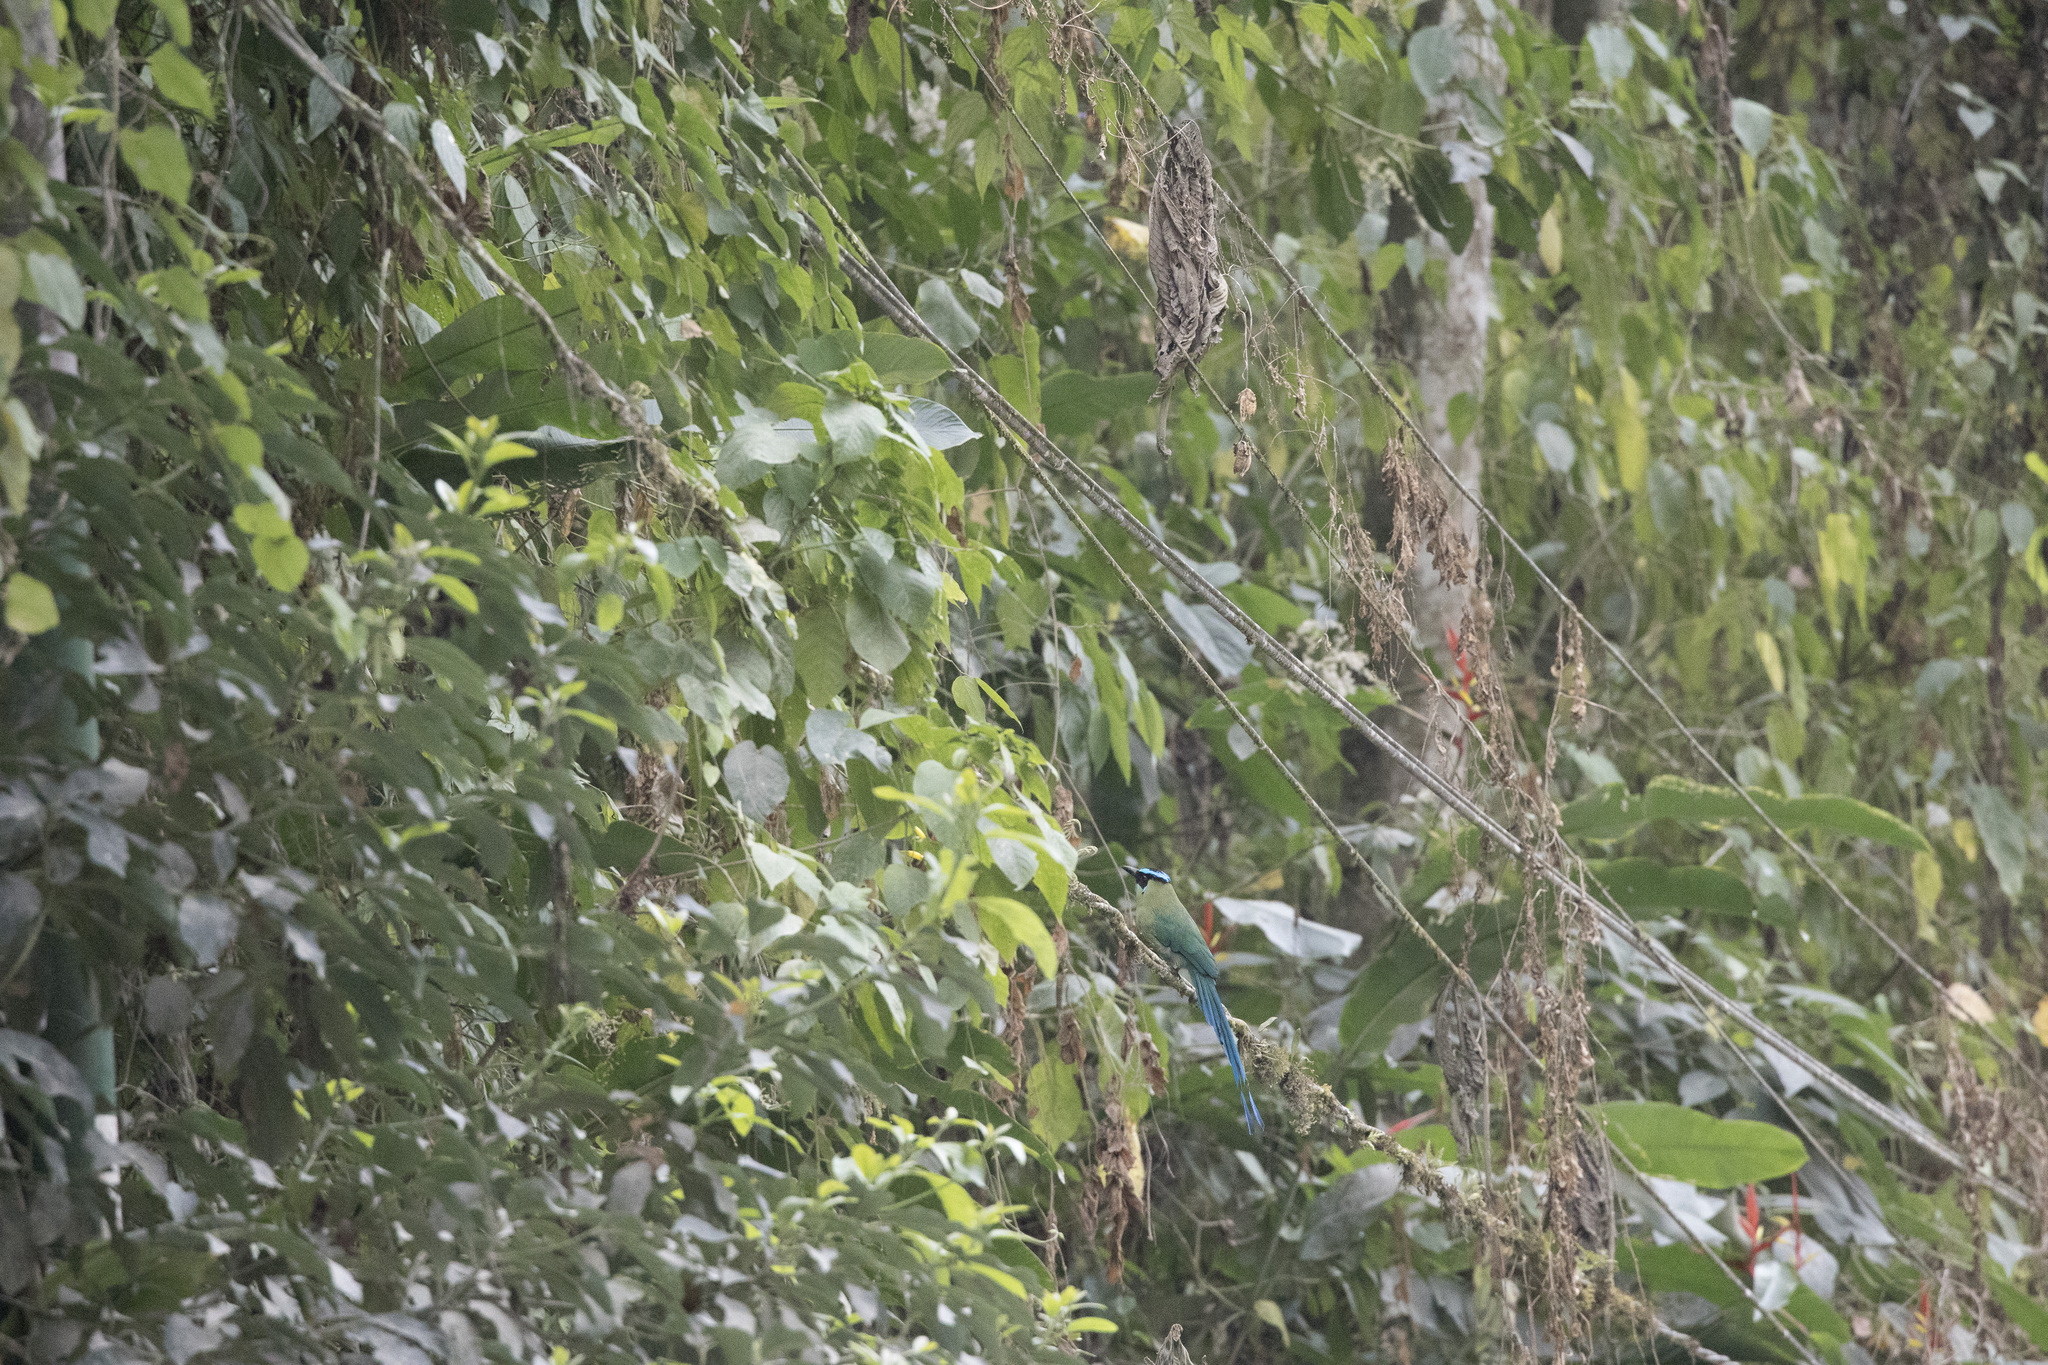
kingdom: Animalia
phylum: Chordata
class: Aves
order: Coraciiformes
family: Momotidae
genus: Momotus
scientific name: Momotus aequatorialis
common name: Andean motmot
